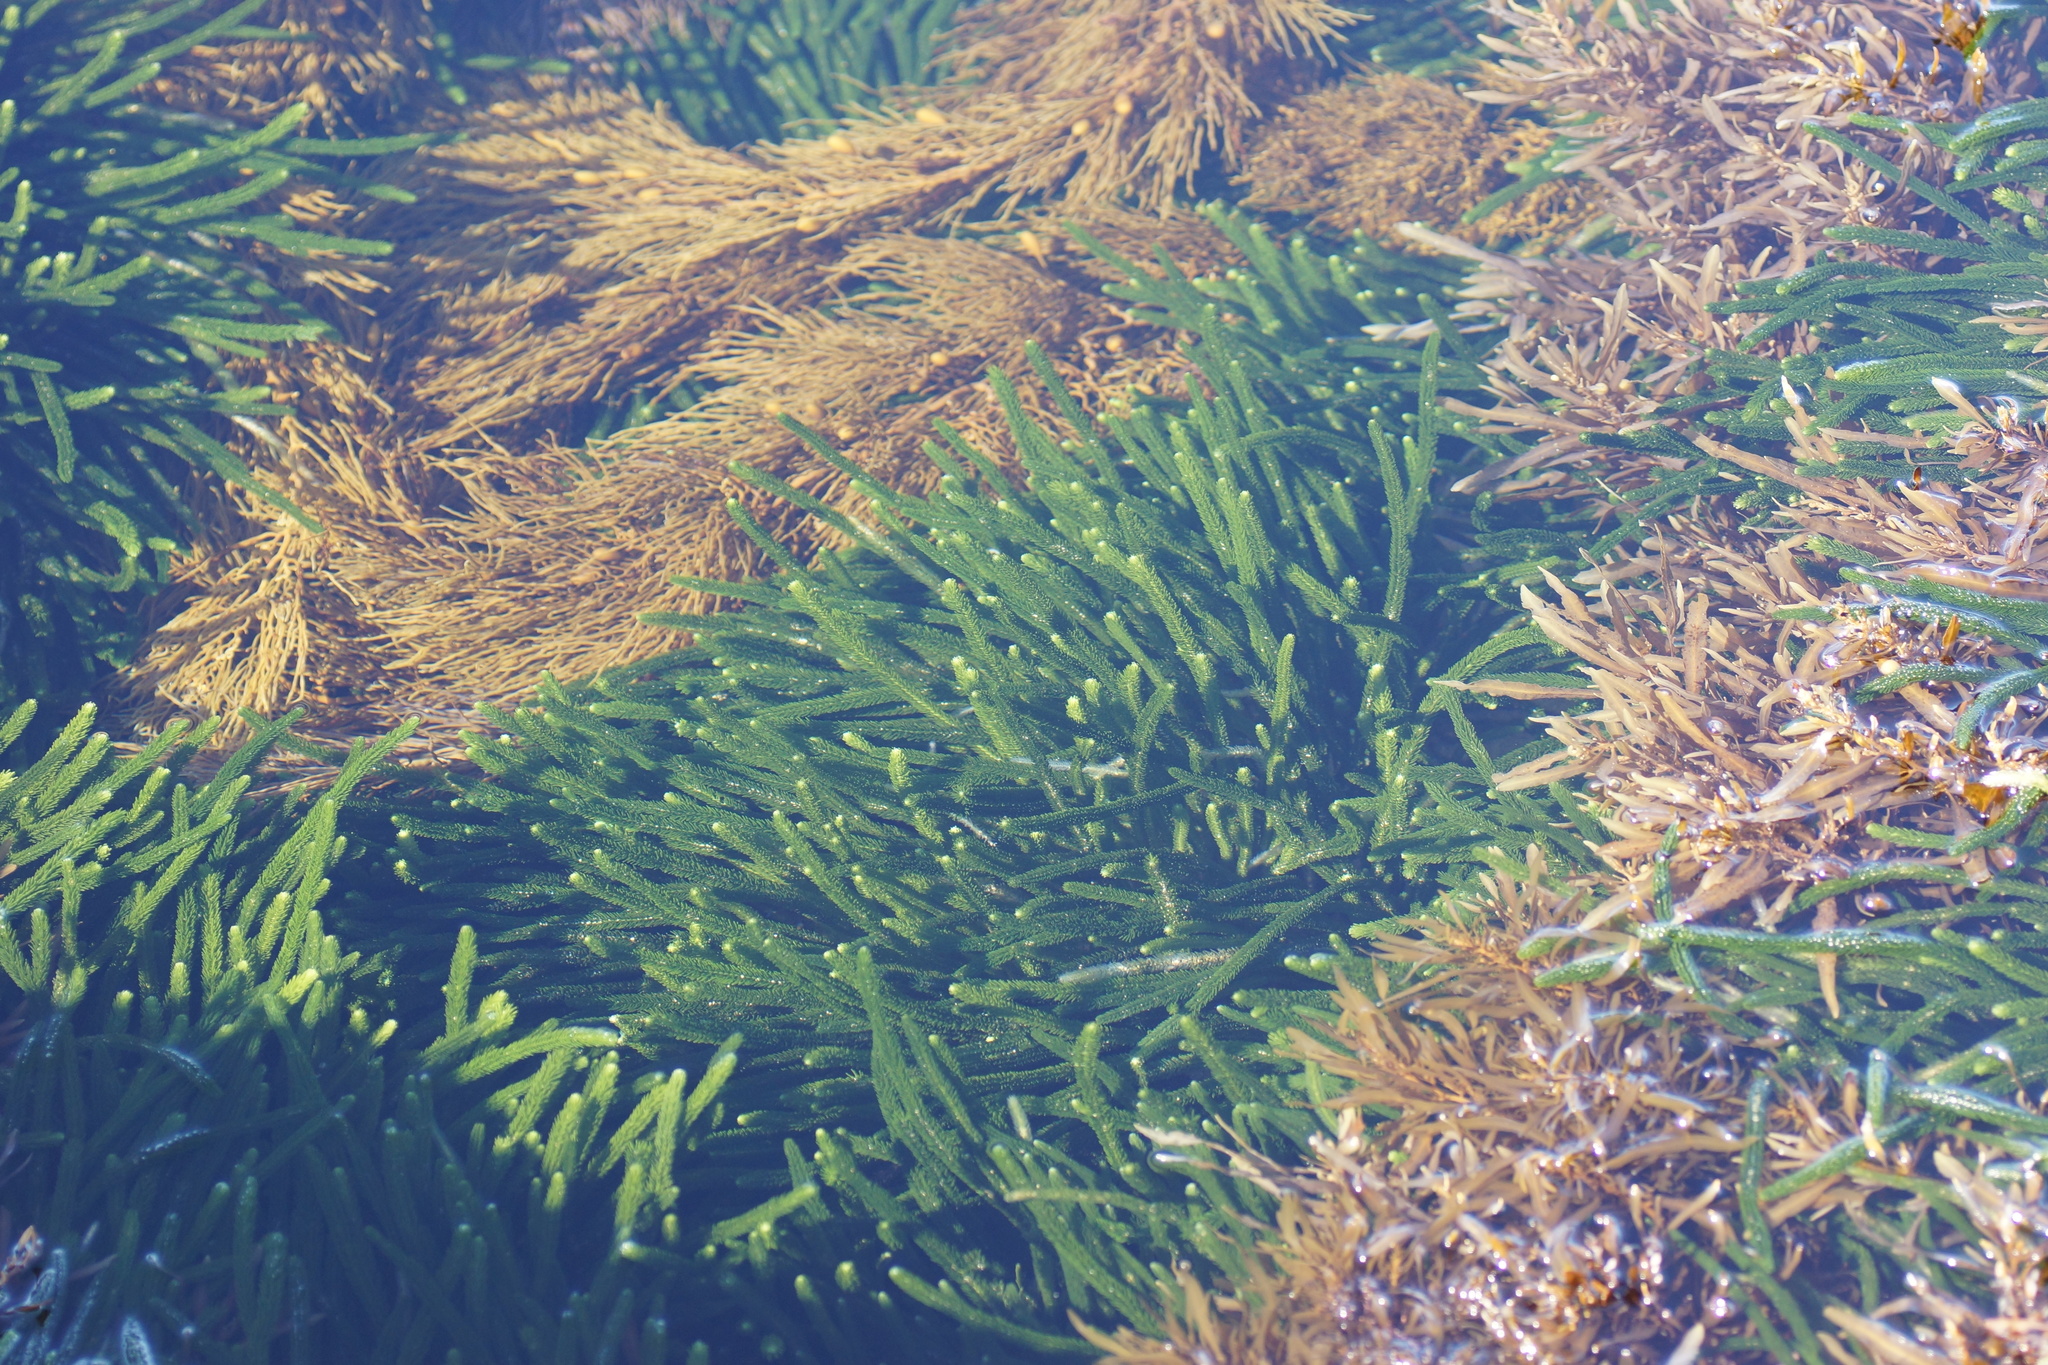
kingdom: Plantae
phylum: Chlorophyta
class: Ulvophyceae
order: Bryopsidales
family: Caulerpaceae
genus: Caulerpa
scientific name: Caulerpa brownii
